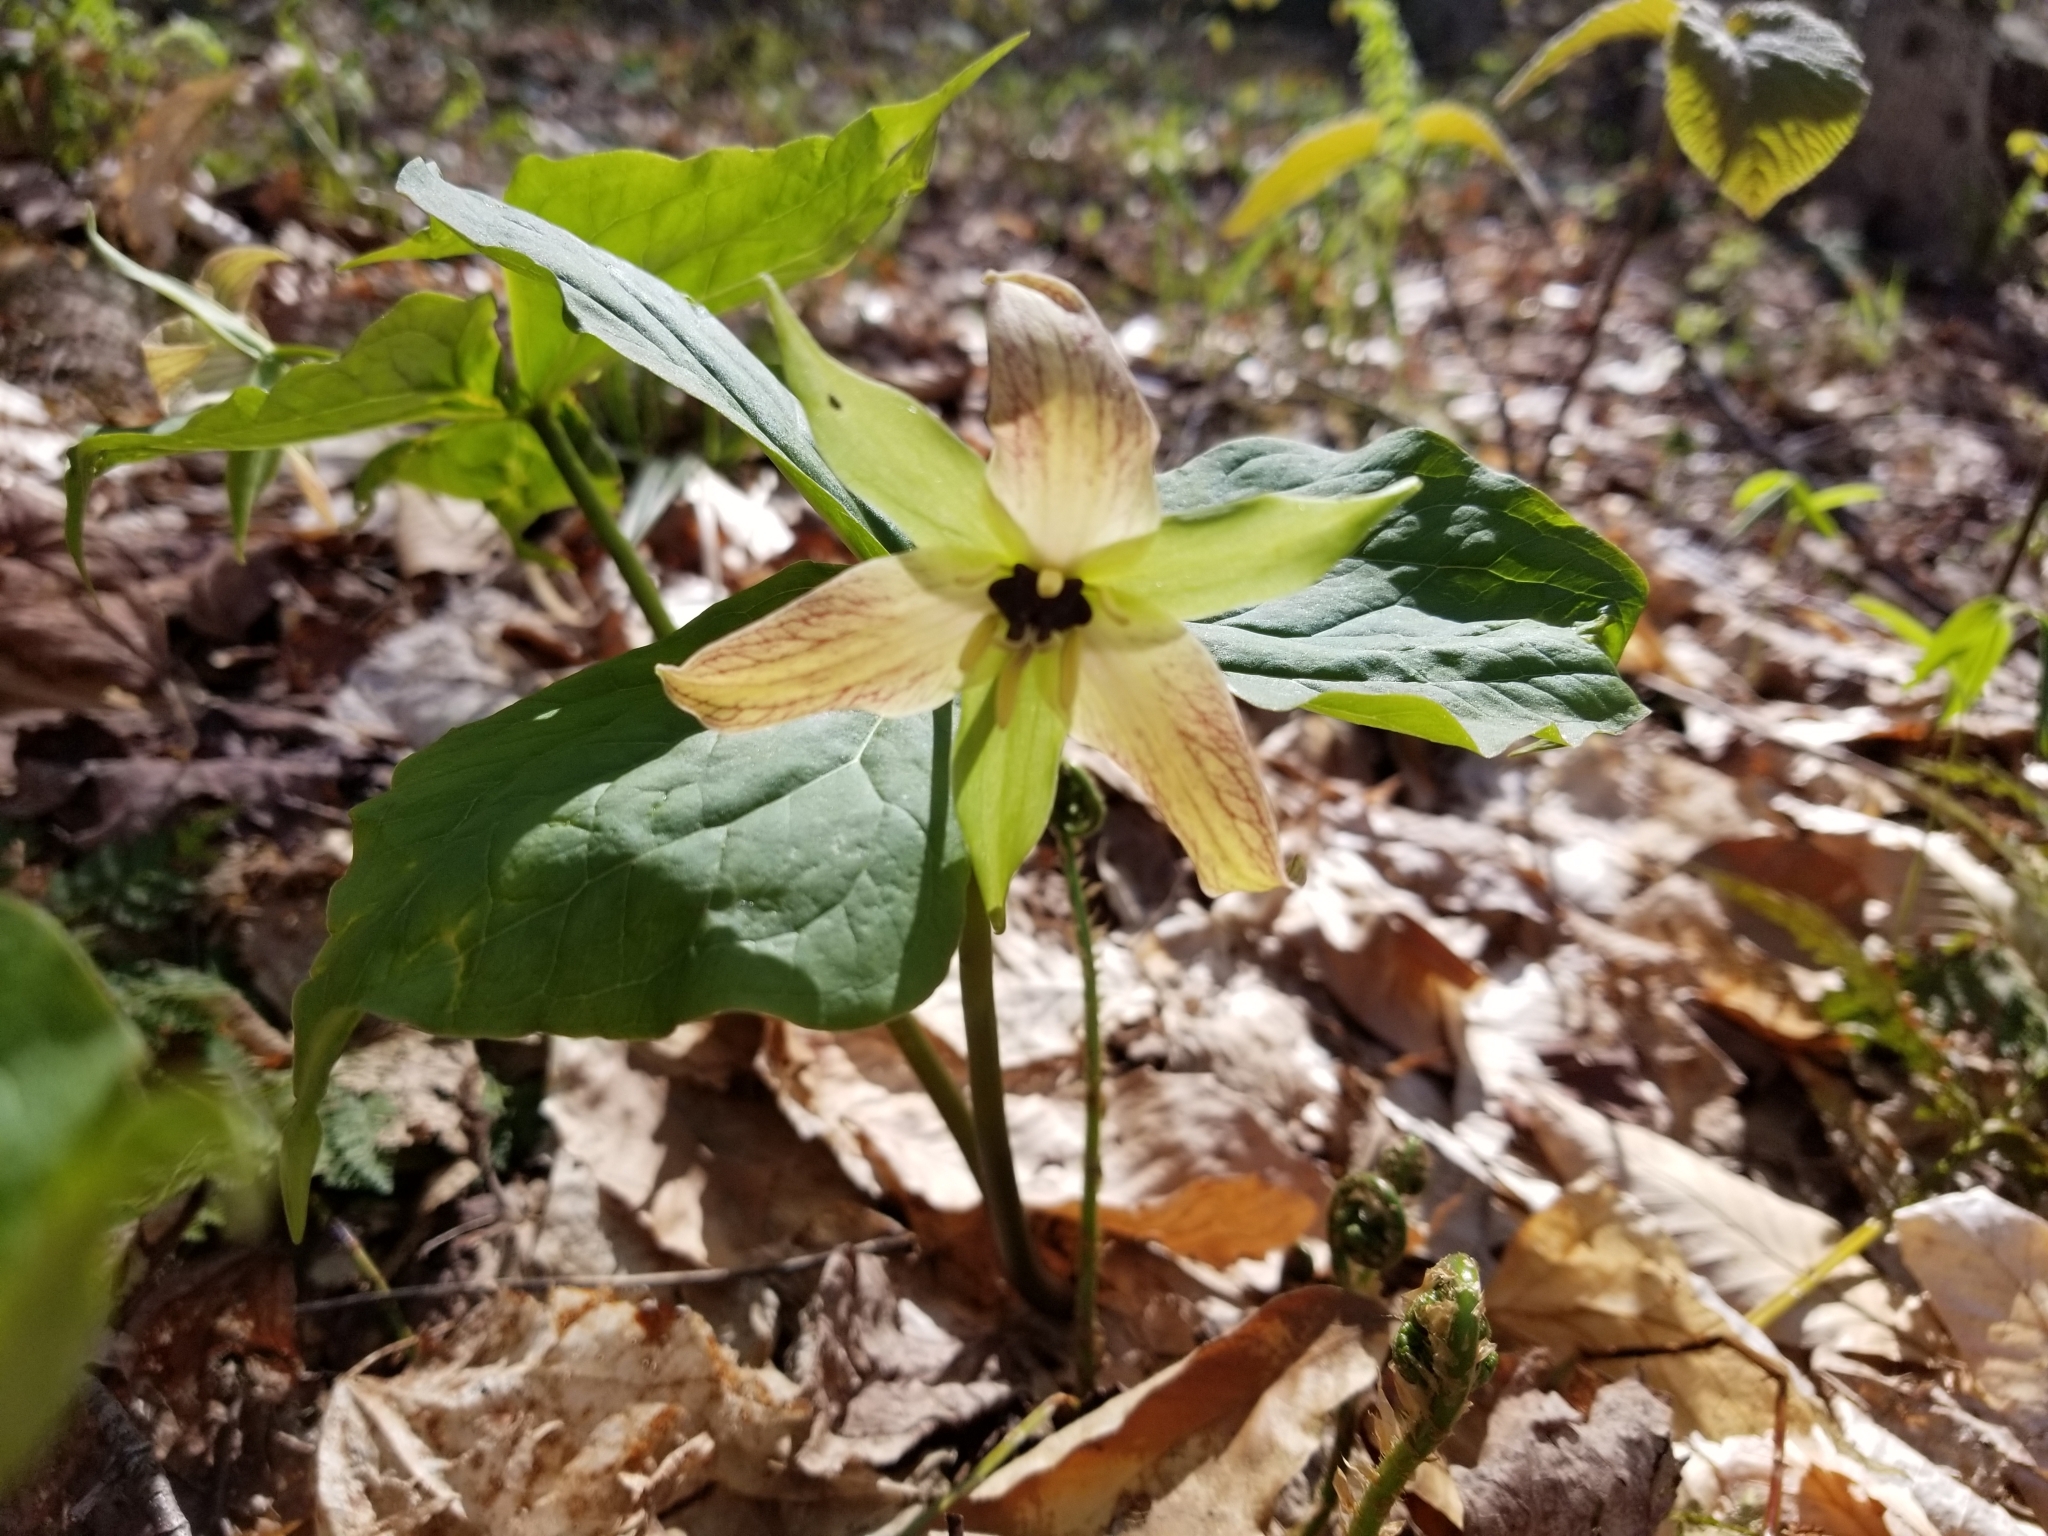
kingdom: Plantae
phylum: Tracheophyta
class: Liliopsida
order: Liliales
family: Melanthiaceae
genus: Trillium
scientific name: Trillium erectum
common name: Purple trillium
